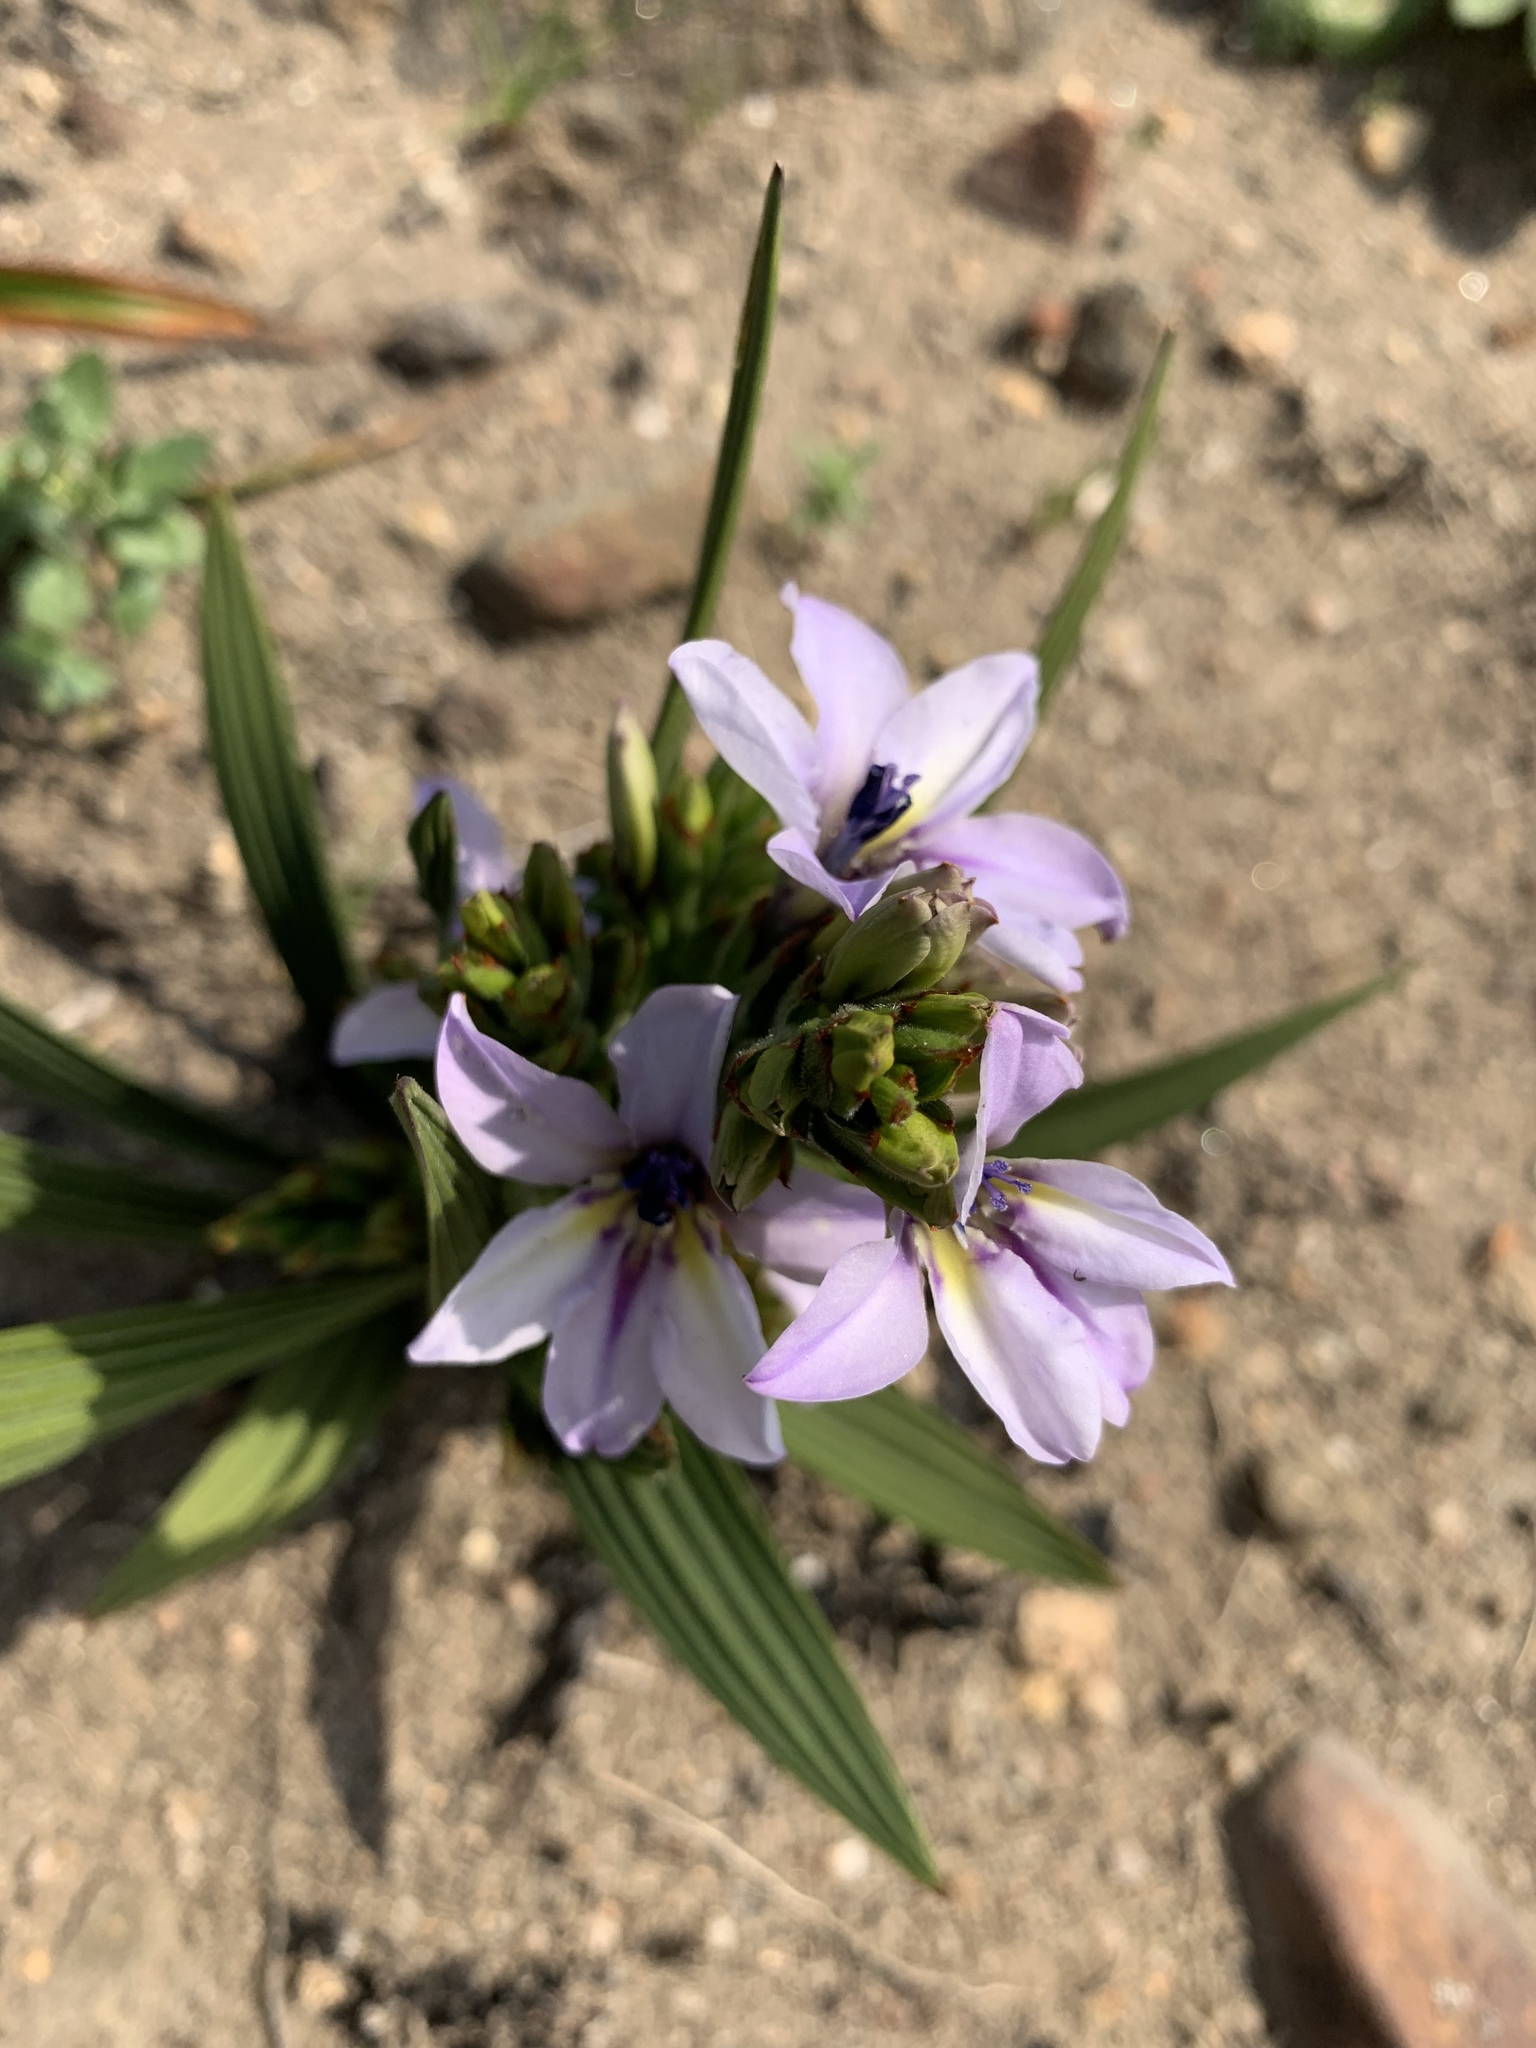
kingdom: Plantae
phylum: Tracheophyta
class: Liliopsida
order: Asparagales
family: Iridaceae
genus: Babiana
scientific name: Babiana fragrans
